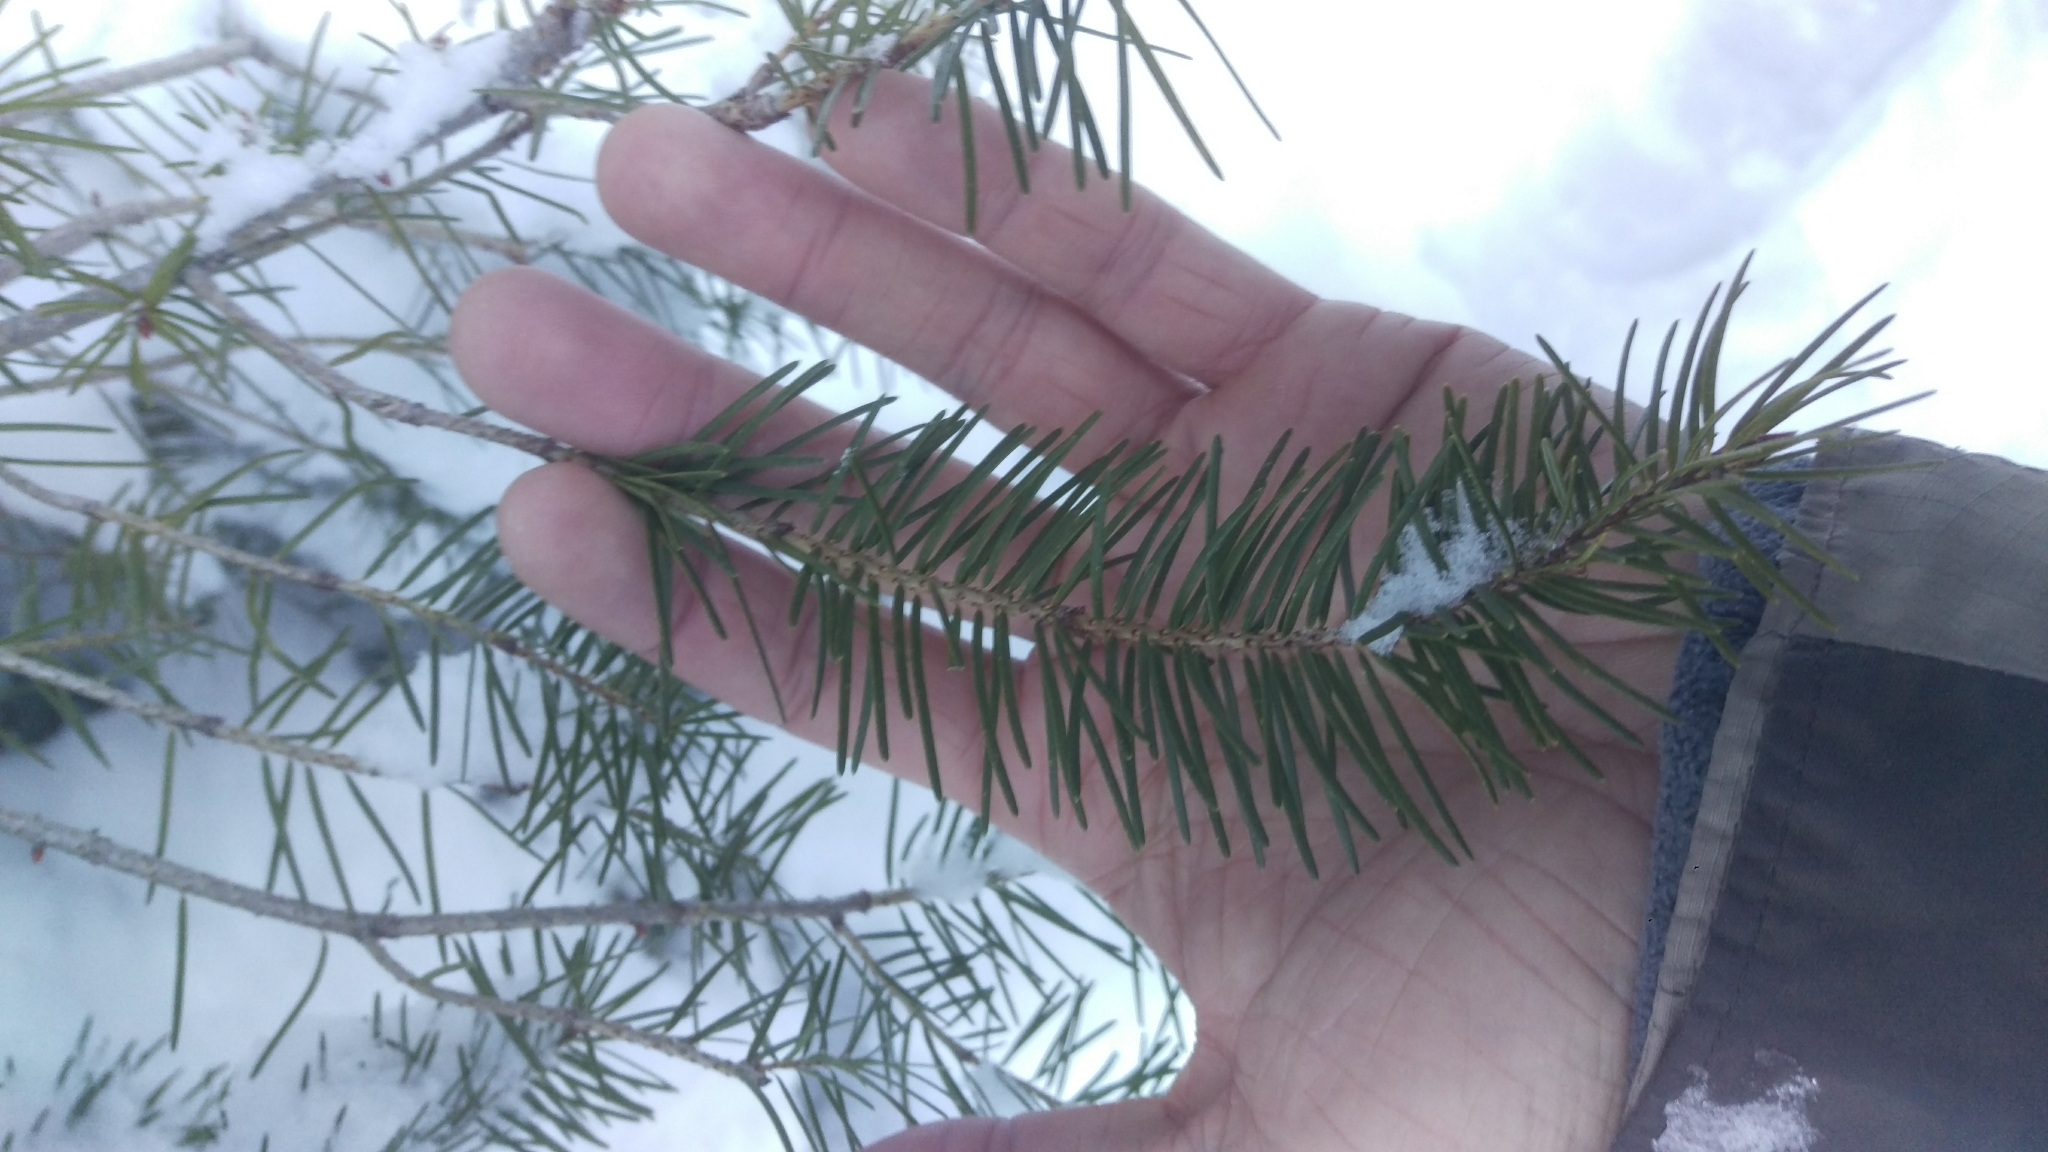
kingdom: Plantae
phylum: Tracheophyta
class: Pinopsida
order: Pinales
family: Pinaceae
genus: Pseudotsuga
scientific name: Pseudotsuga menziesii
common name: Douglas fir
